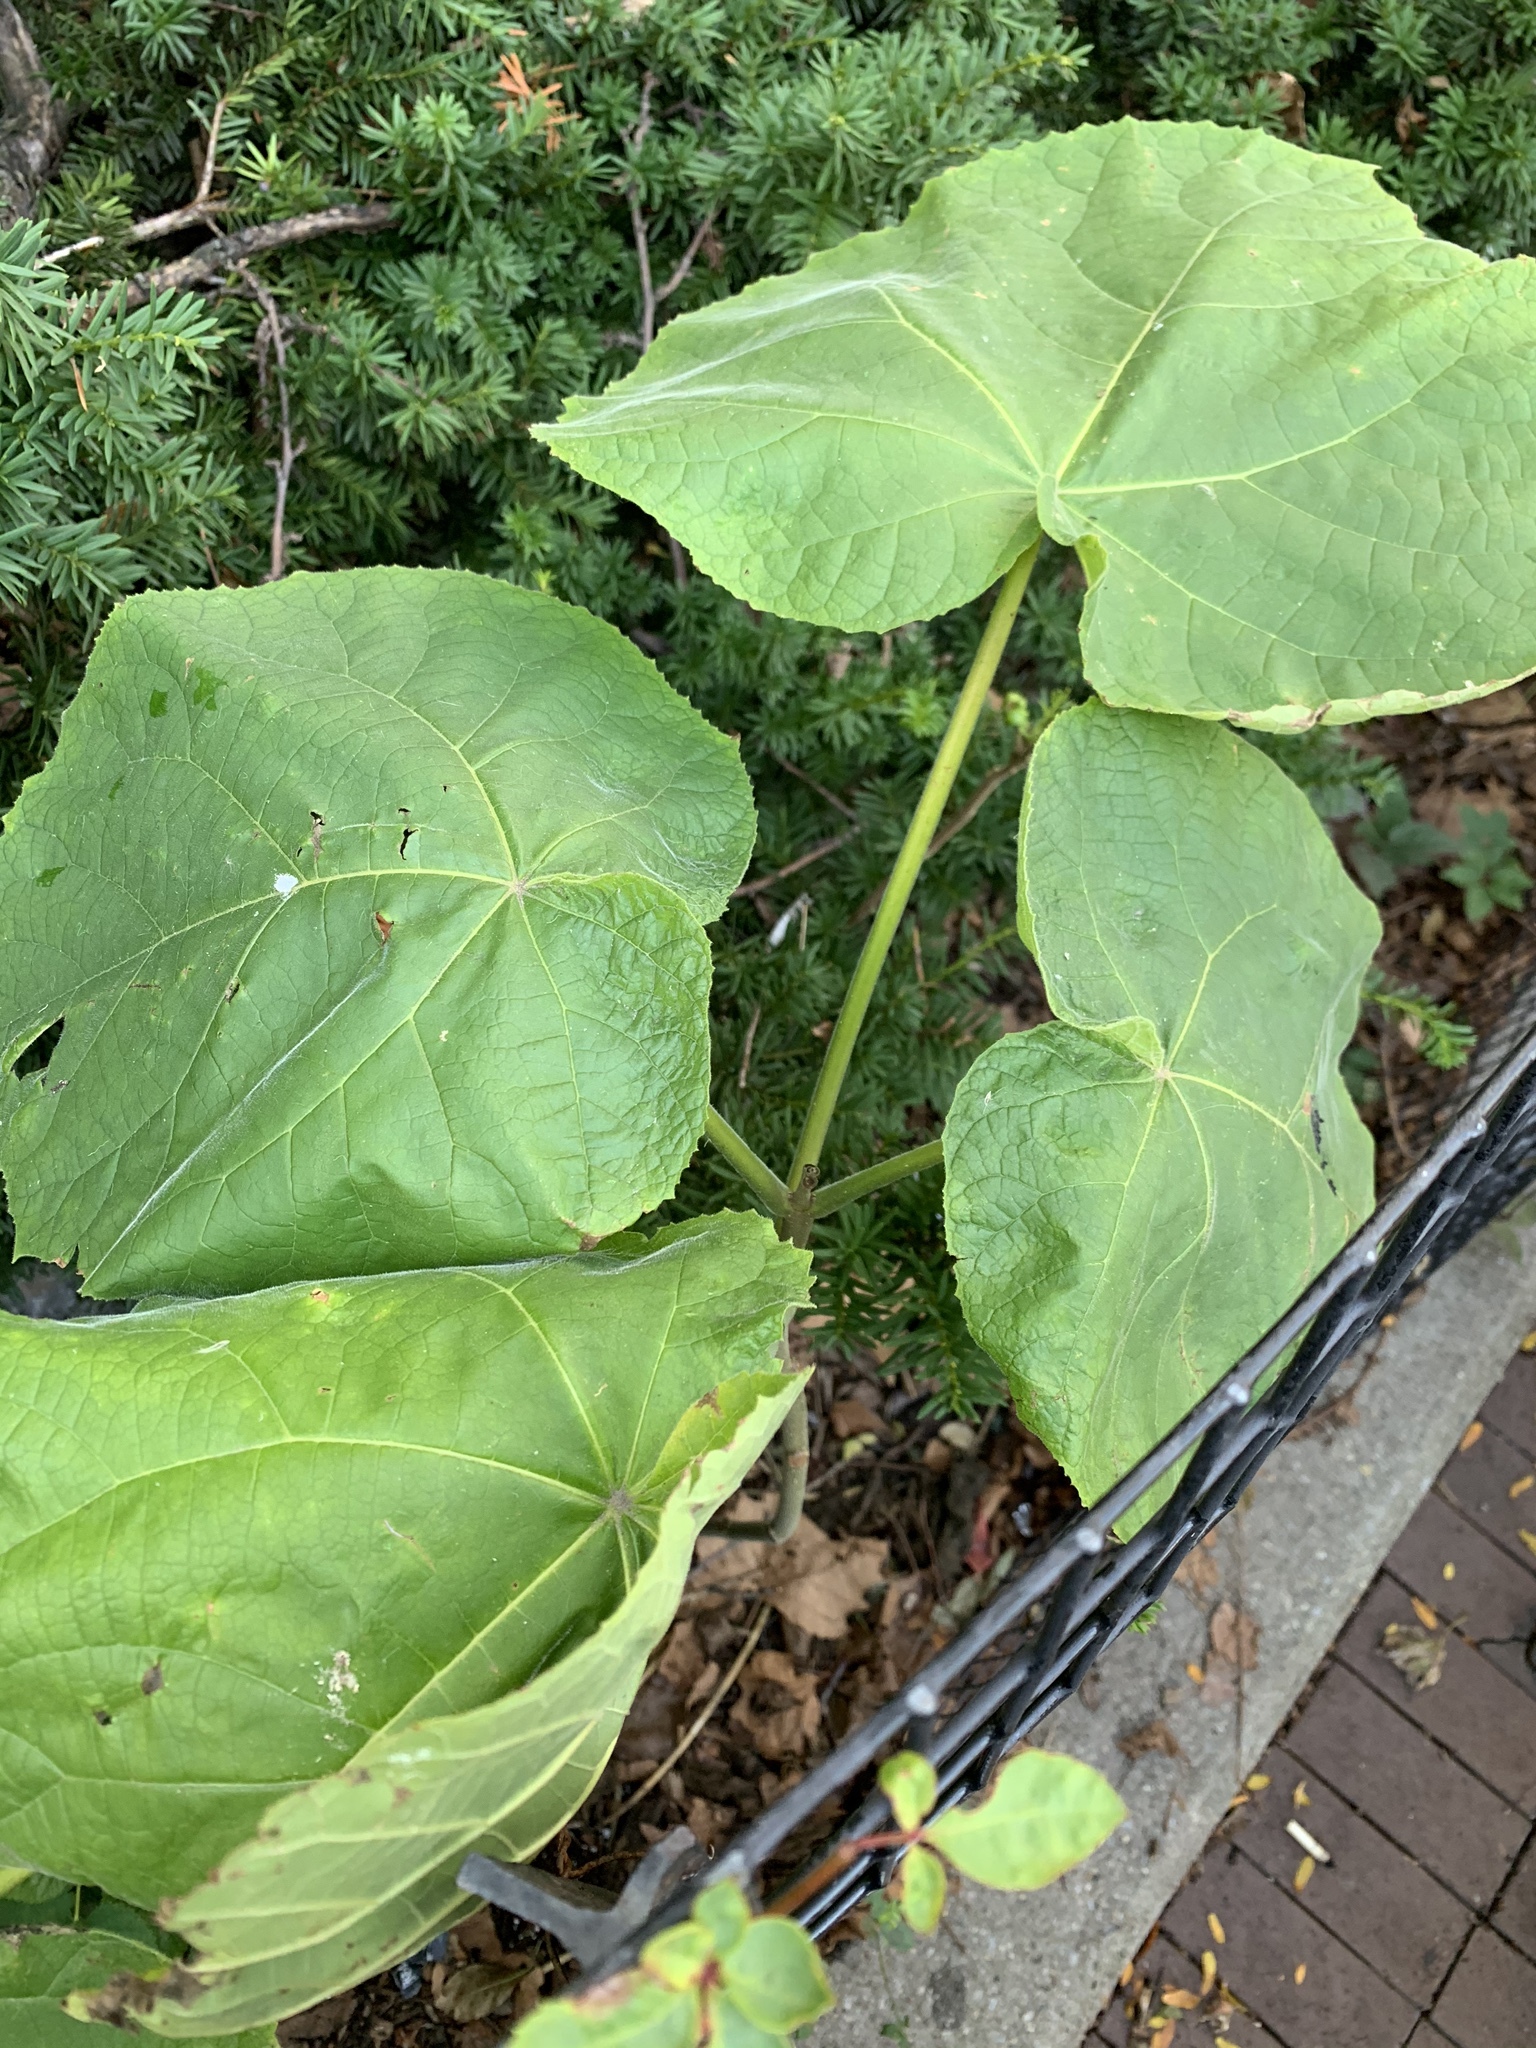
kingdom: Plantae
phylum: Tracheophyta
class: Magnoliopsida
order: Lamiales
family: Paulowniaceae
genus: Paulownia
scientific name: Paulownia tomentosa
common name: Foxglove-tree
